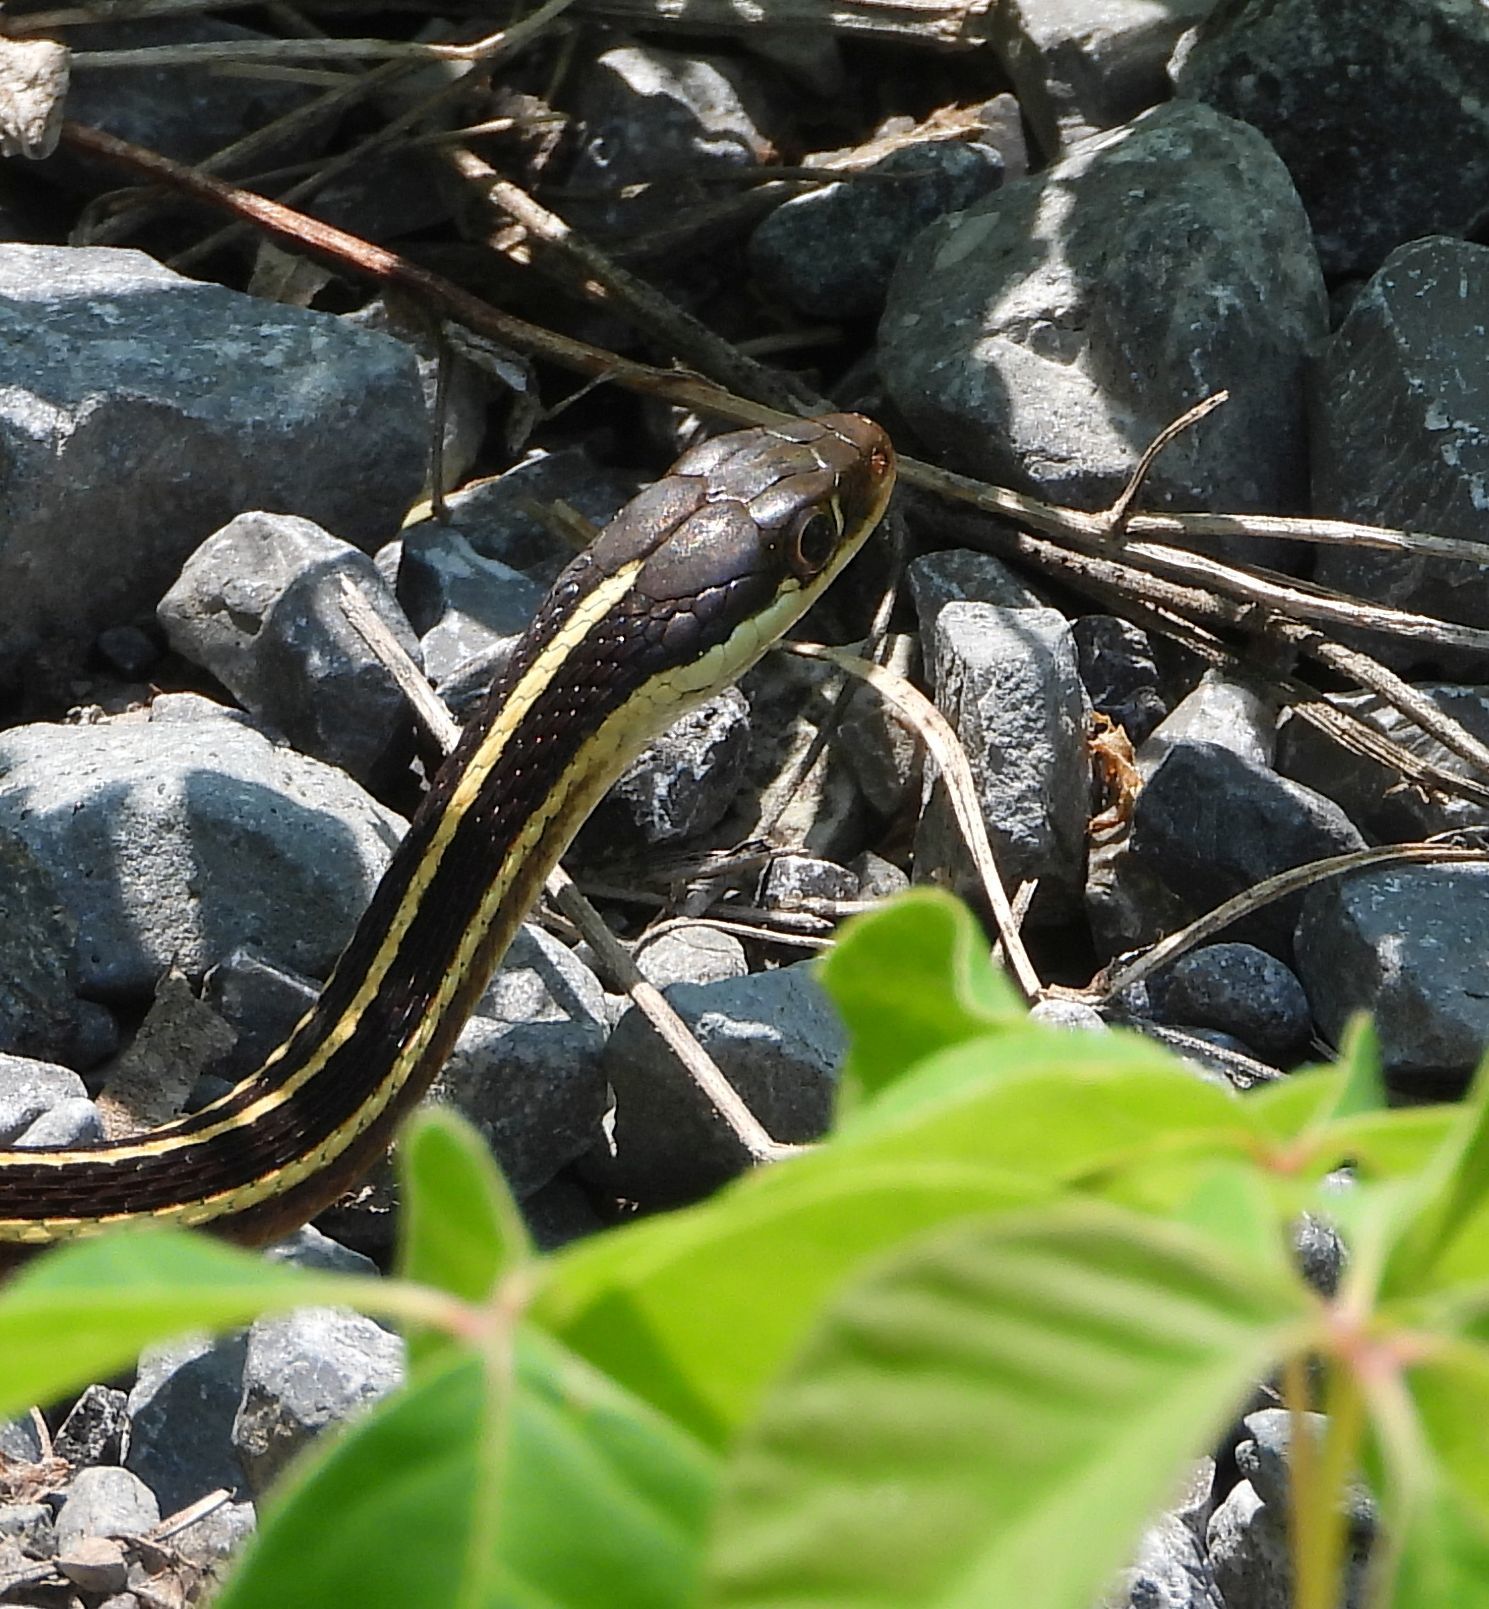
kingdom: Animalia
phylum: Chordata
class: Squamata
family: Colubridae
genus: Thamnophis
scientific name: Thamnophis saurita
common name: Eastern ribbonsnake
